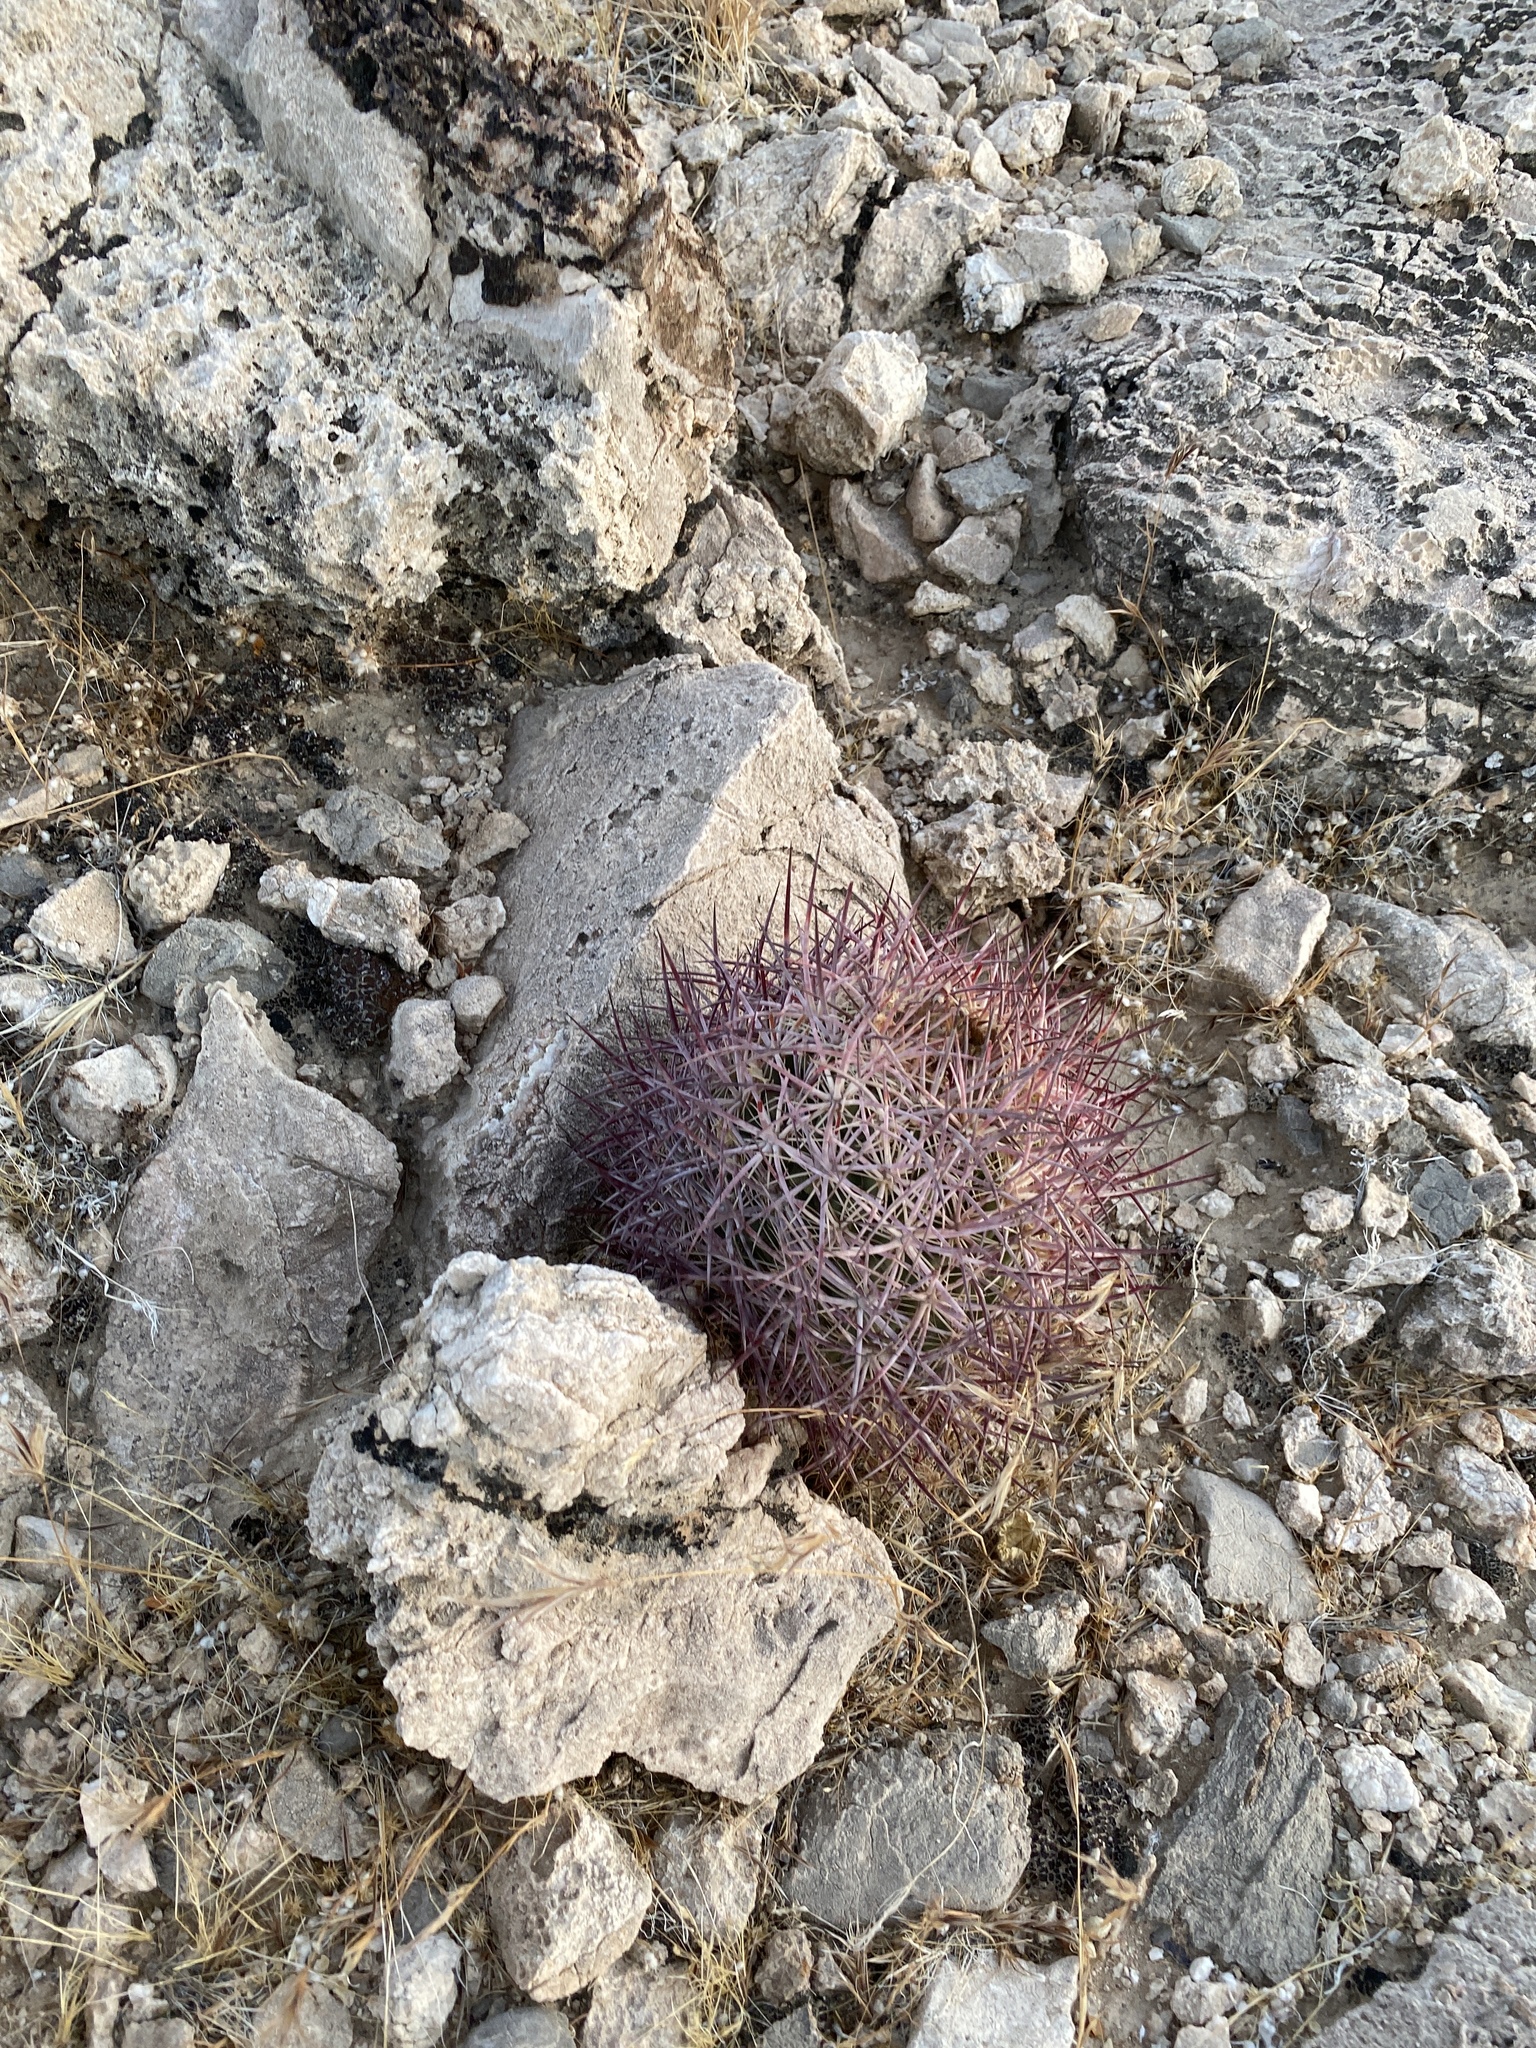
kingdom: Plantae
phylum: Tracheophyta
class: Magnoliopsida
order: Caryophyllales
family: Cactaceae
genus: Sclerocactus
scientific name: Sclerocactus johnsonii
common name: Eight-spine fishhook cactus
